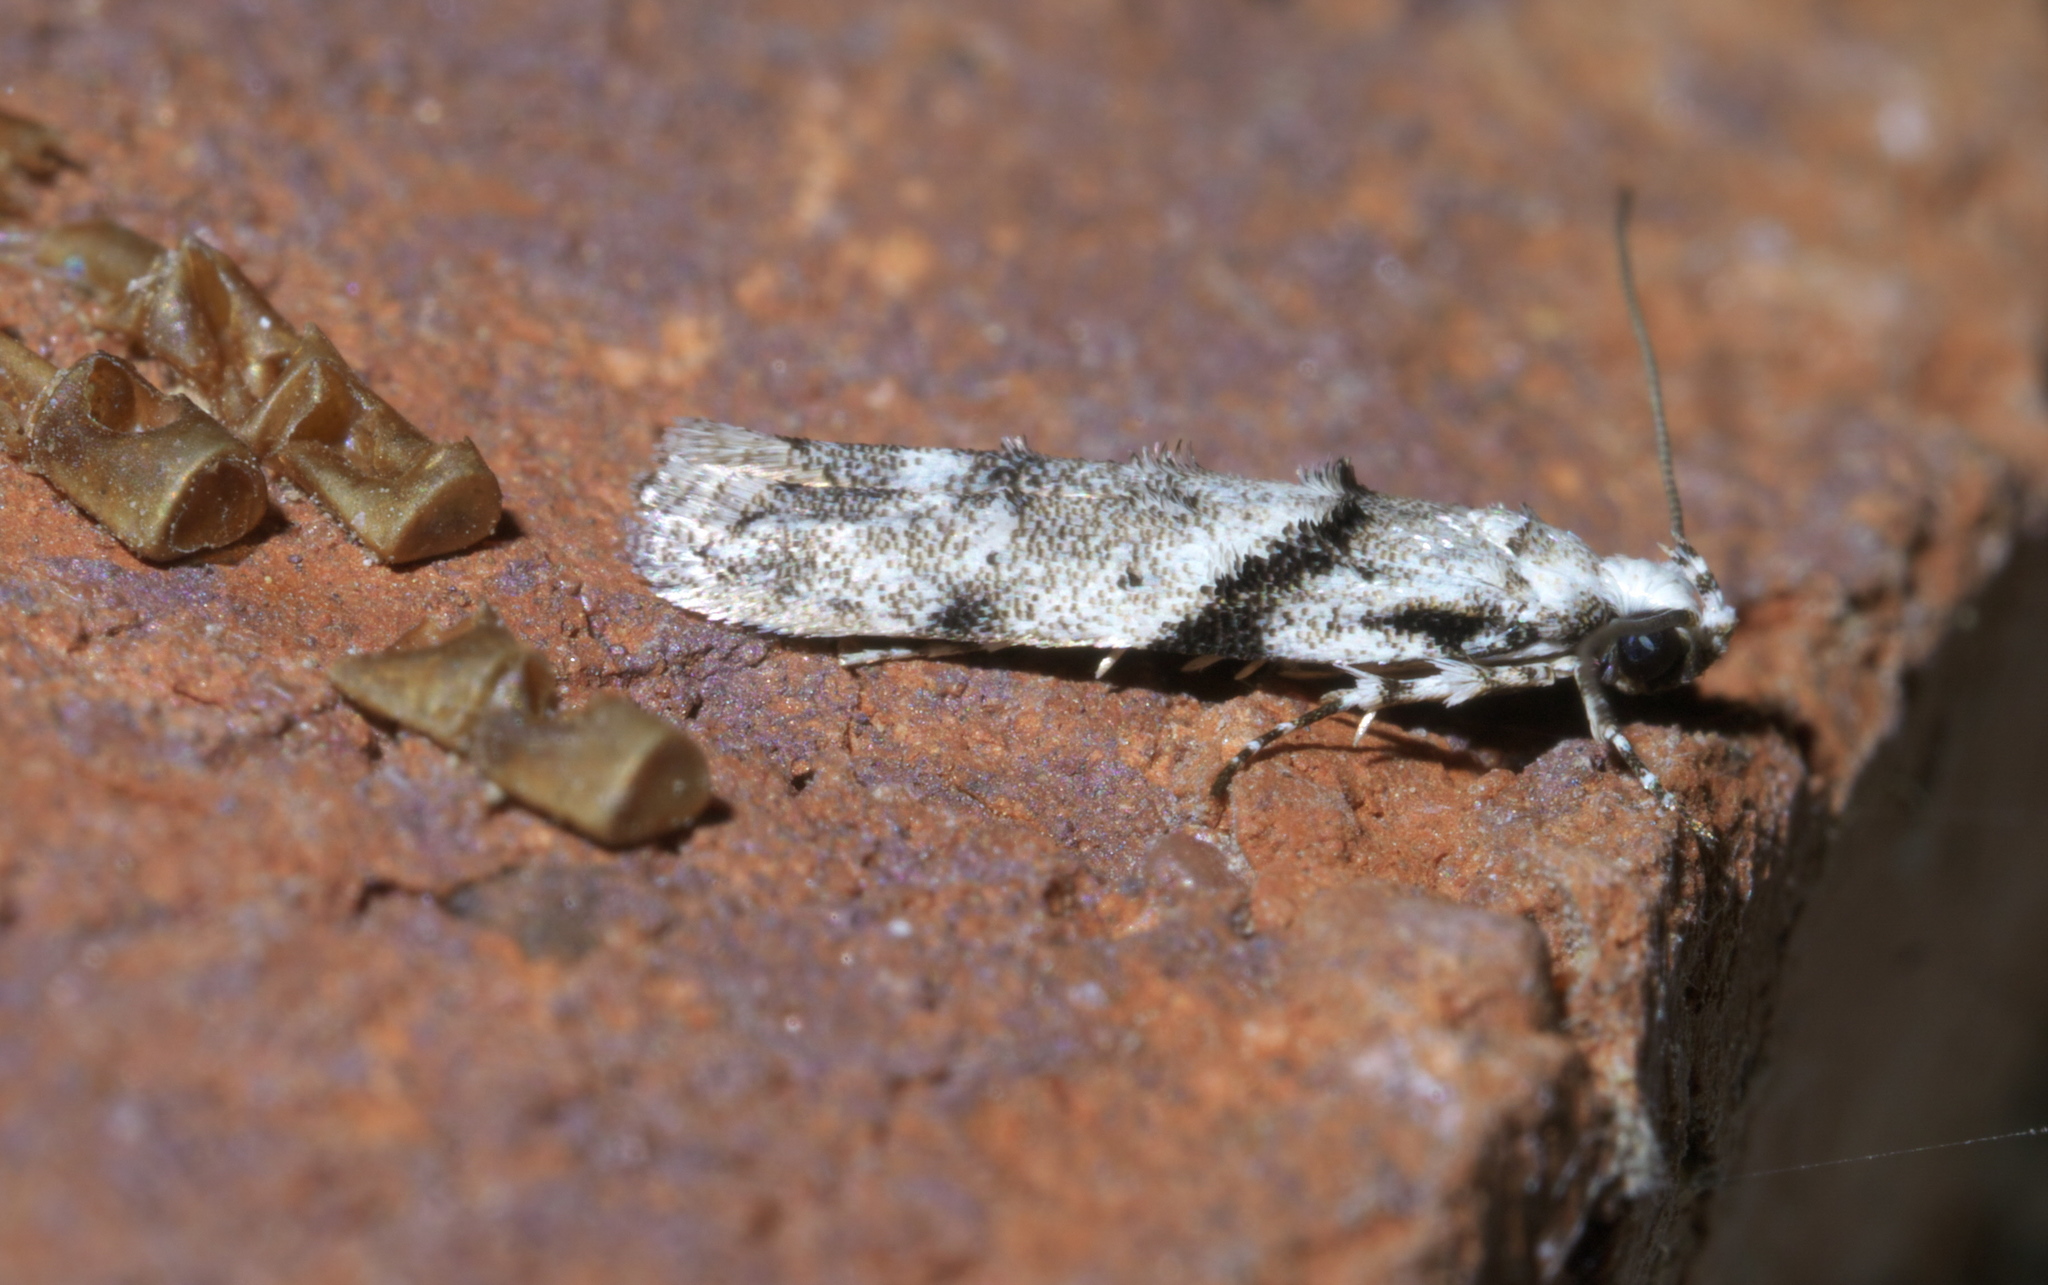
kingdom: Animalia
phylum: Arthropoda
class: Insecta
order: Lepidoptera
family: Gelechiidae
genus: Arogalea
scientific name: Arogalea cristifasciella
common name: White stripe-backed moth
